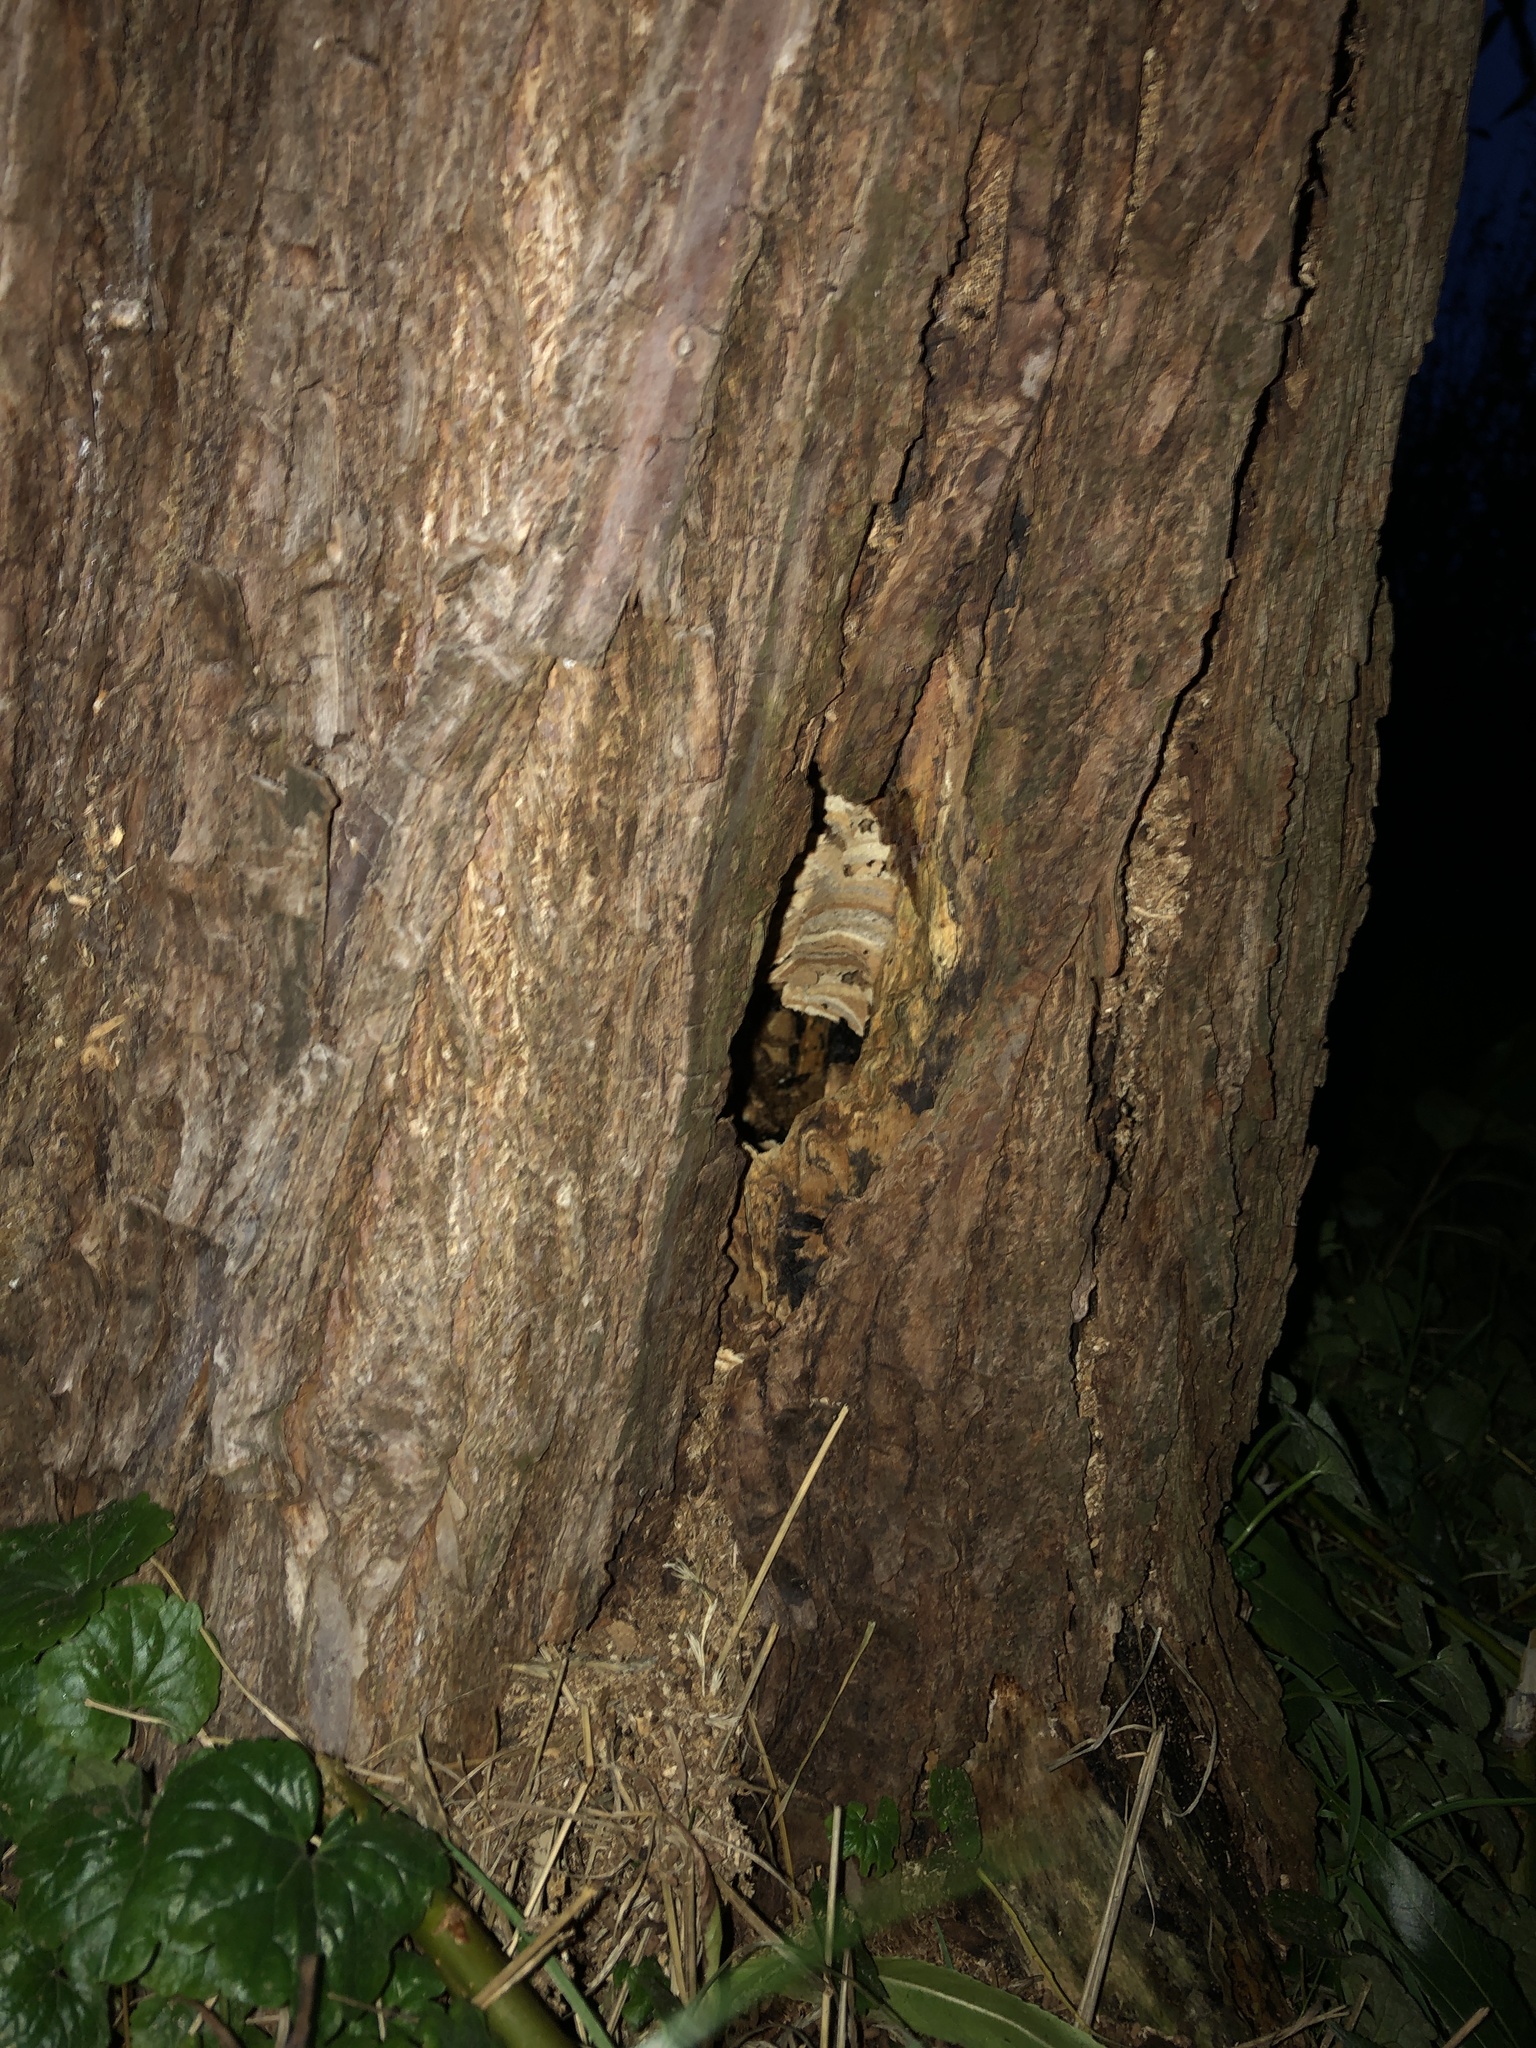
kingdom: Animalia
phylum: Arthropoda
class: Insecta
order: Hymenoptera
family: Vespidae
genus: Vespa
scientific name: Vespa crabro
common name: Hornet
